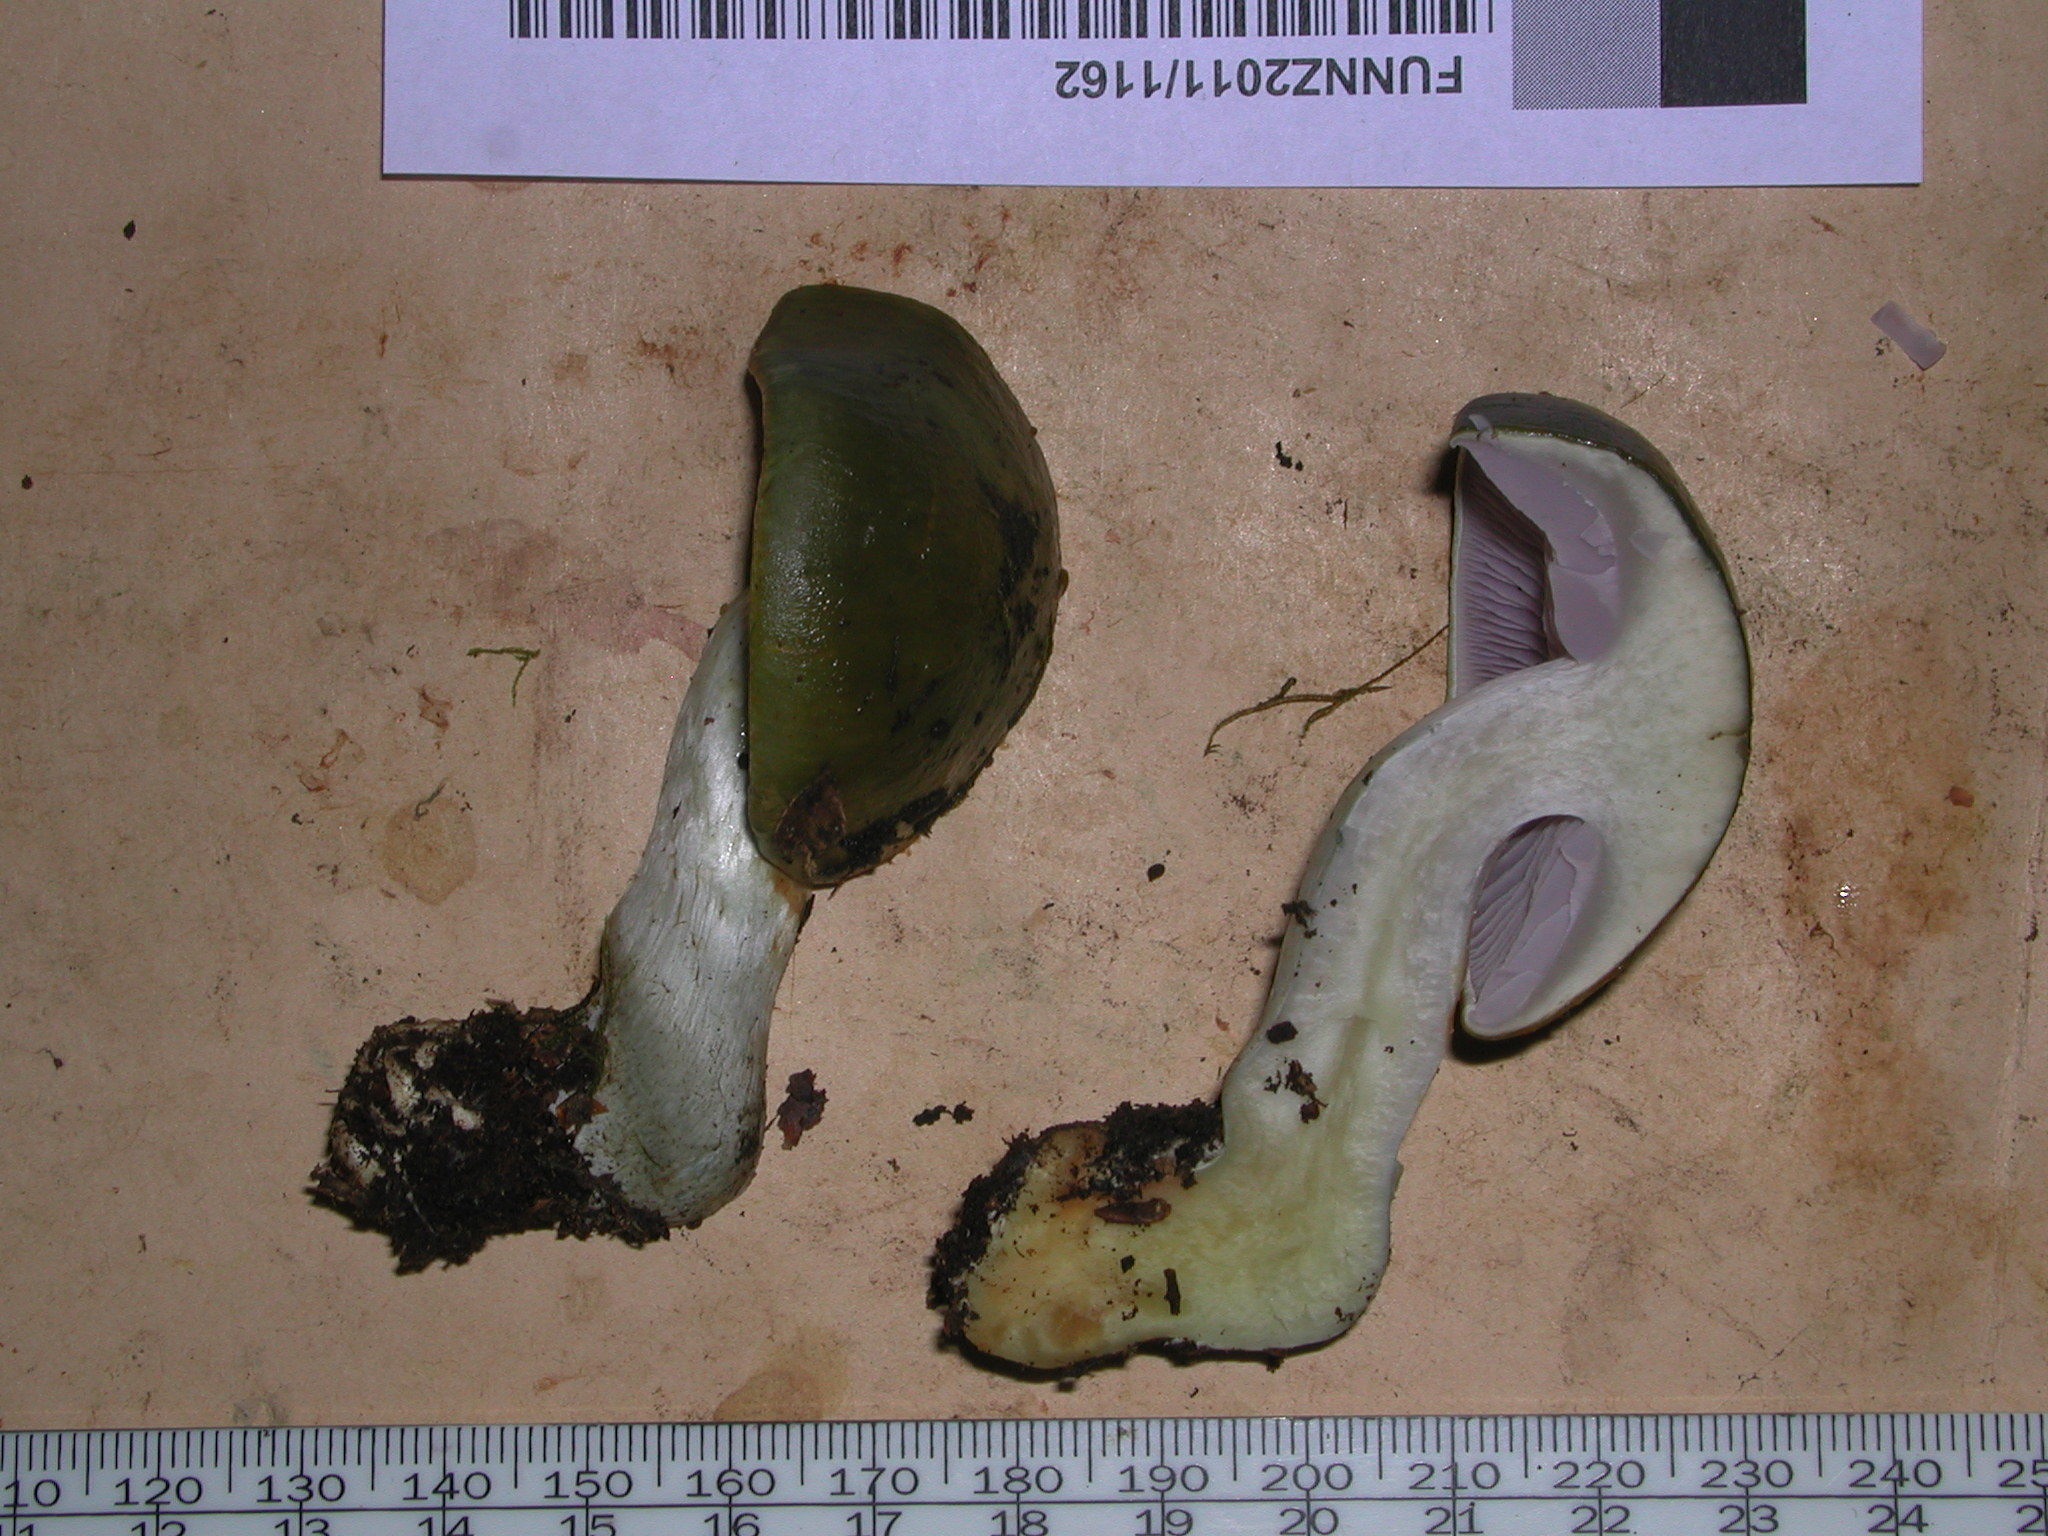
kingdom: Fungi
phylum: Basidiomycota
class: Agaricomycetes
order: Agaricales
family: Cortinariaceae
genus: Cortinarius
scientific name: Cortinarius viridipileatus
